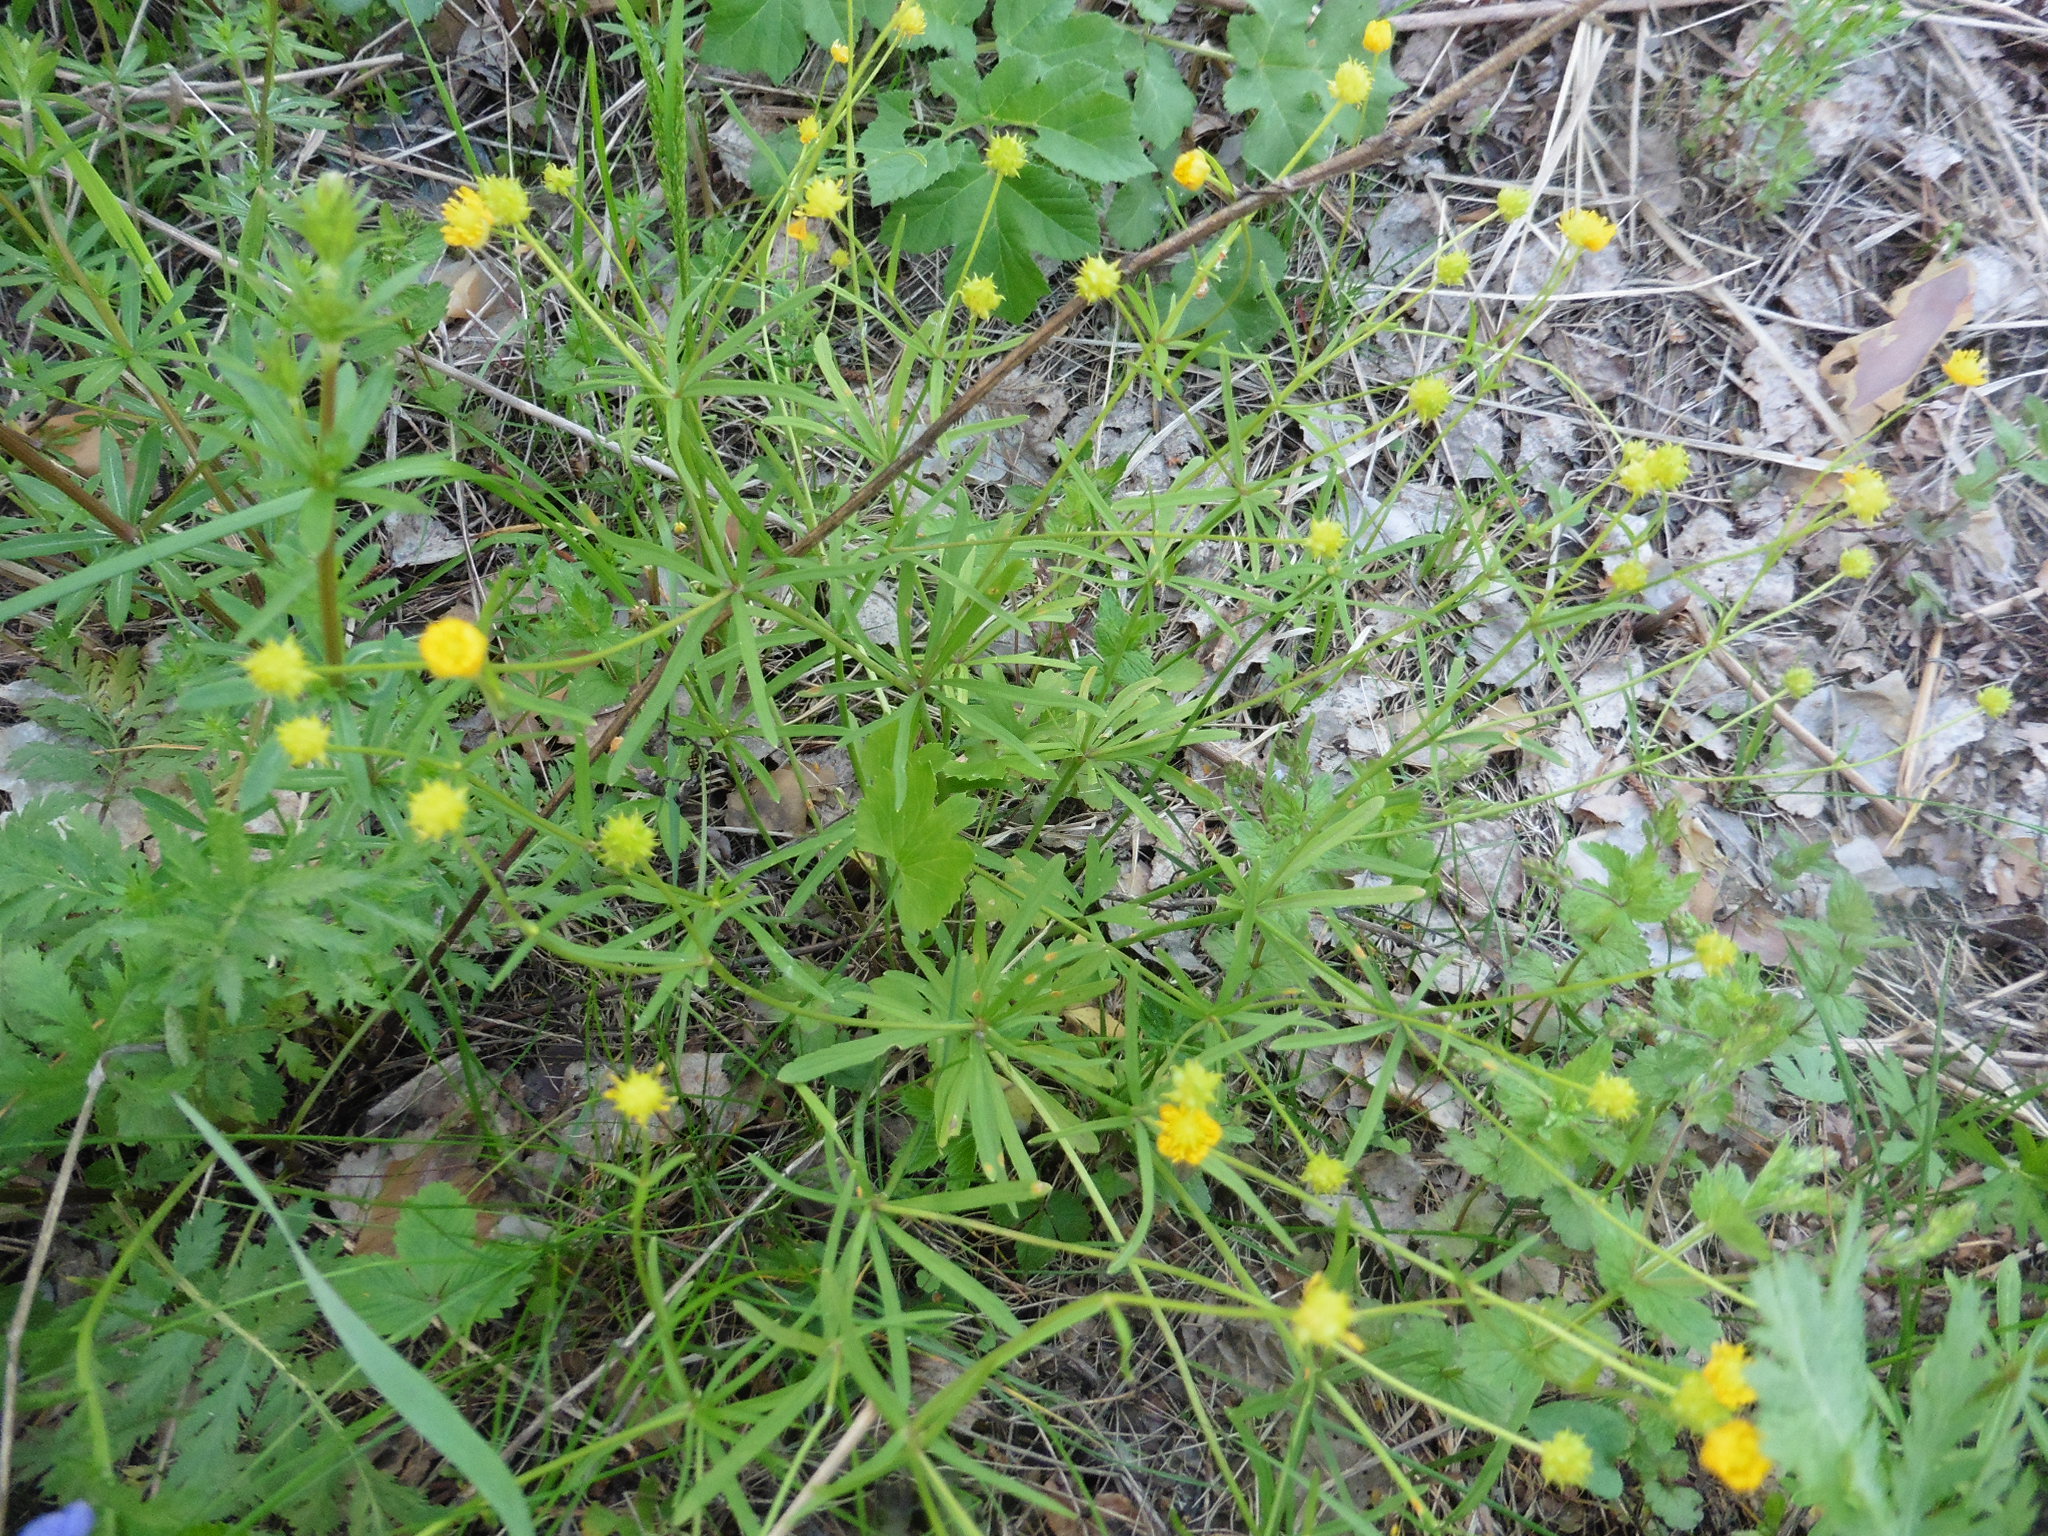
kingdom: Plantae
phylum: Tracheophyta
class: Magnoliopsida
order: Ranunculales
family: Ranunculaceae
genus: Ranunculus
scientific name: Ranunculus auricomus
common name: Goldilocks buttercup
